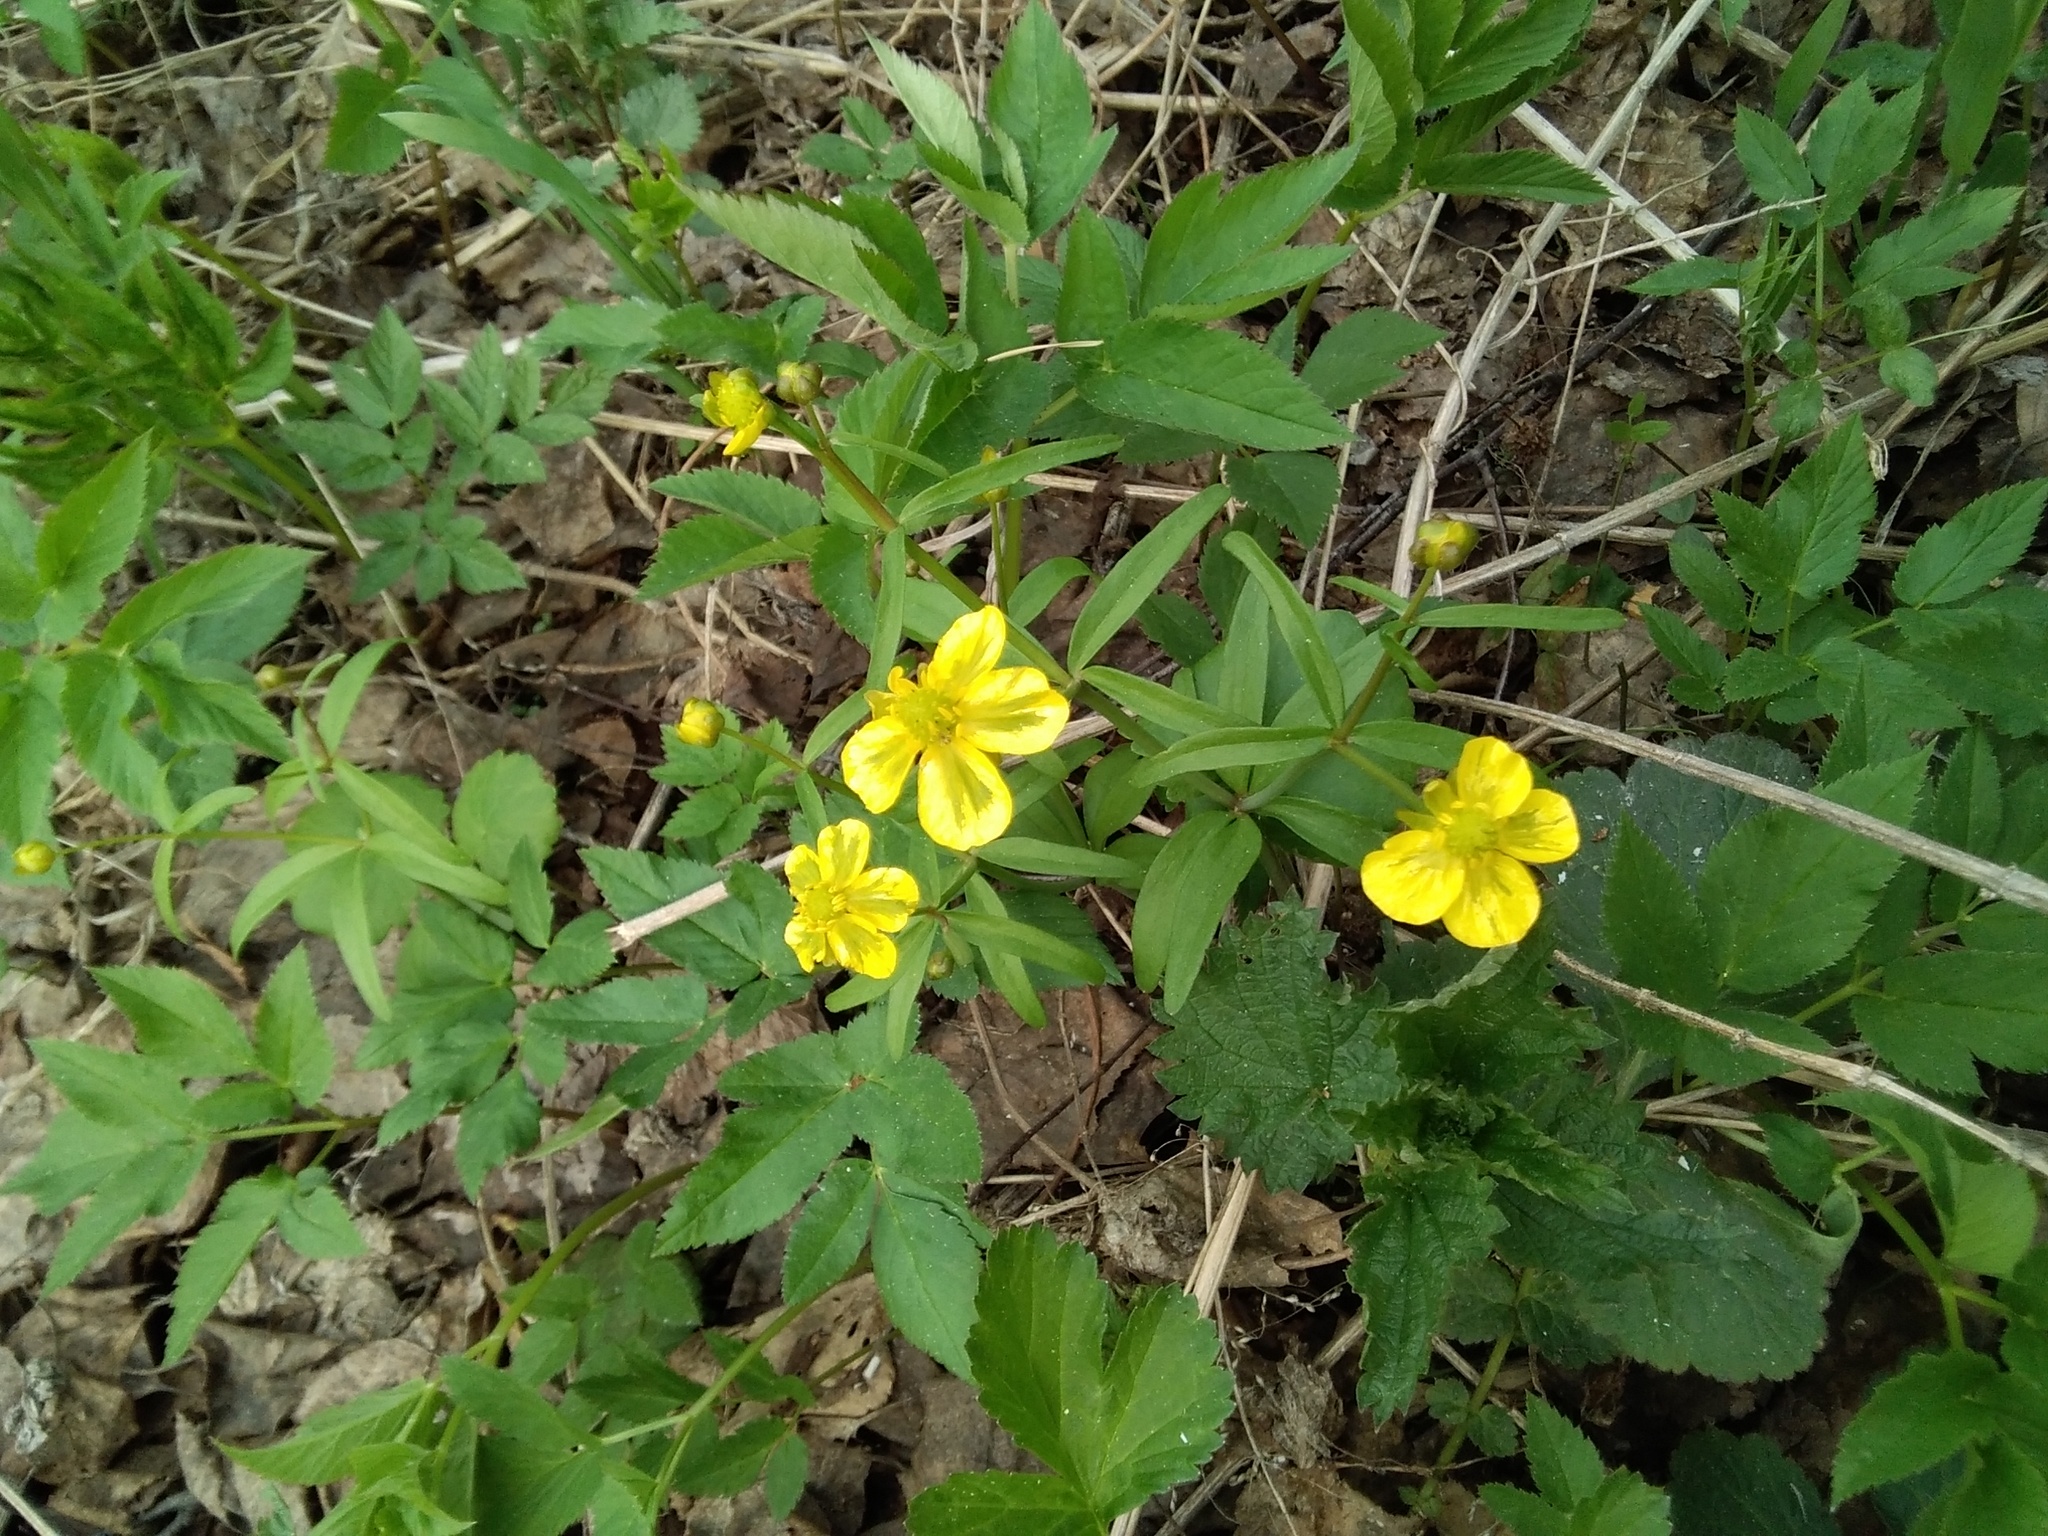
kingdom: Plantae
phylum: Tracheophyta
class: Magnoliopsida
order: Ranunculales
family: Ranunculaceae
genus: Ranunculus
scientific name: Ranunculus monophyllus
